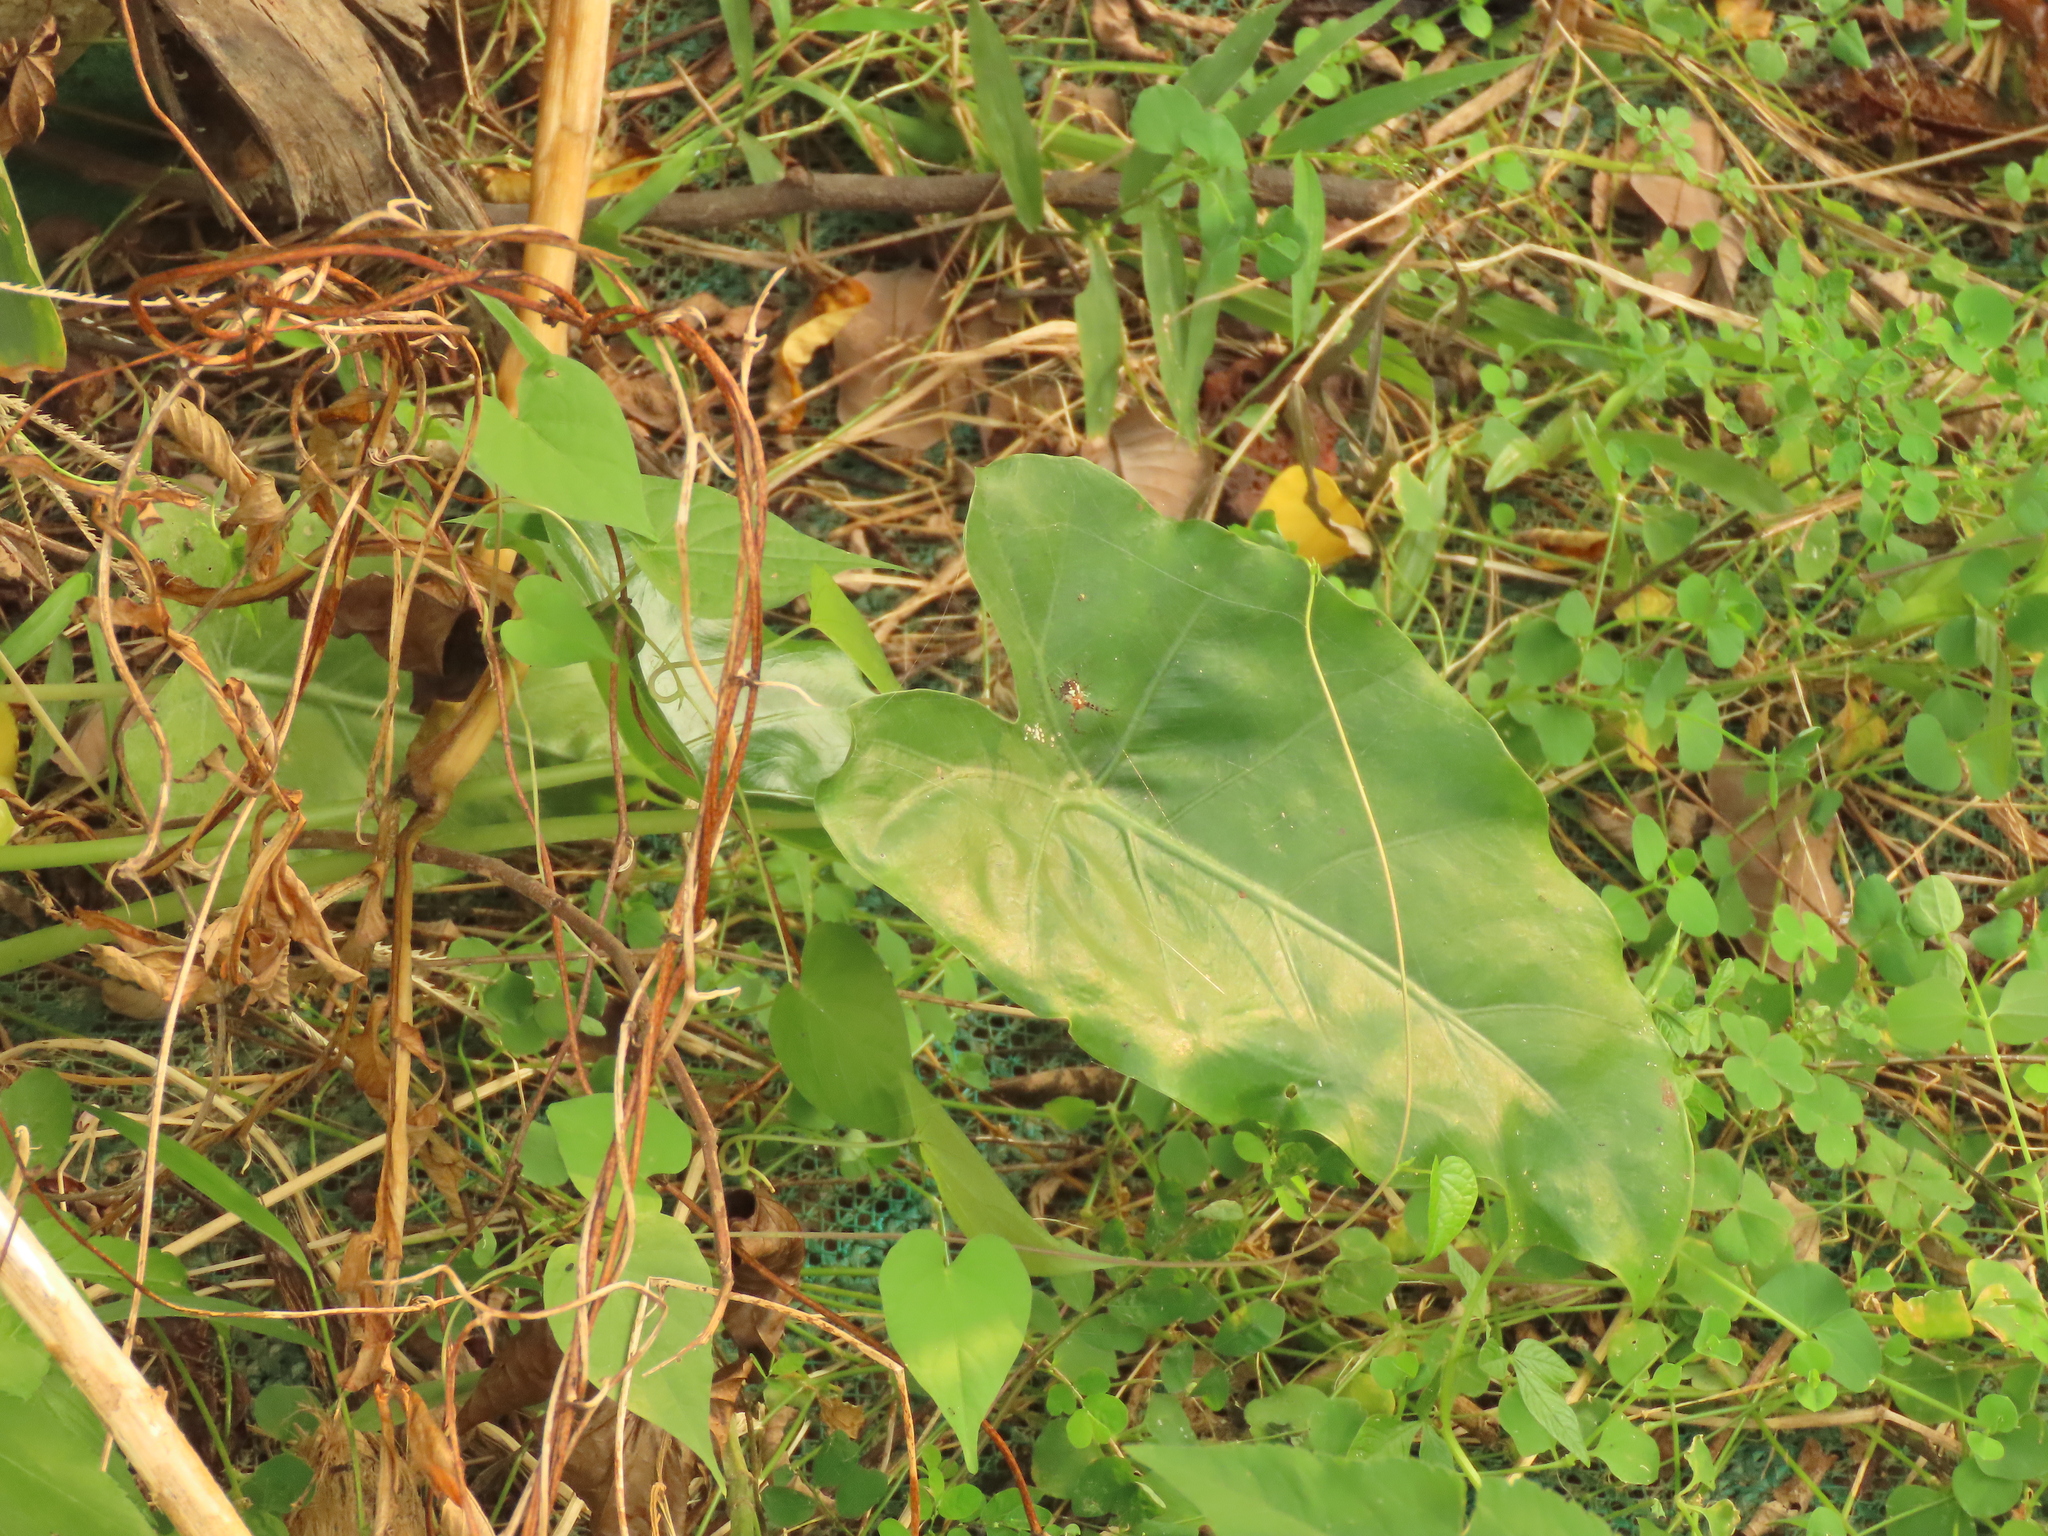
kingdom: Plantae
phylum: Tracheophyta
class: Liliopsida
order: Alismatales
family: Araceae
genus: Alocasia
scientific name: Alocasia odora
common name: Asian taro
